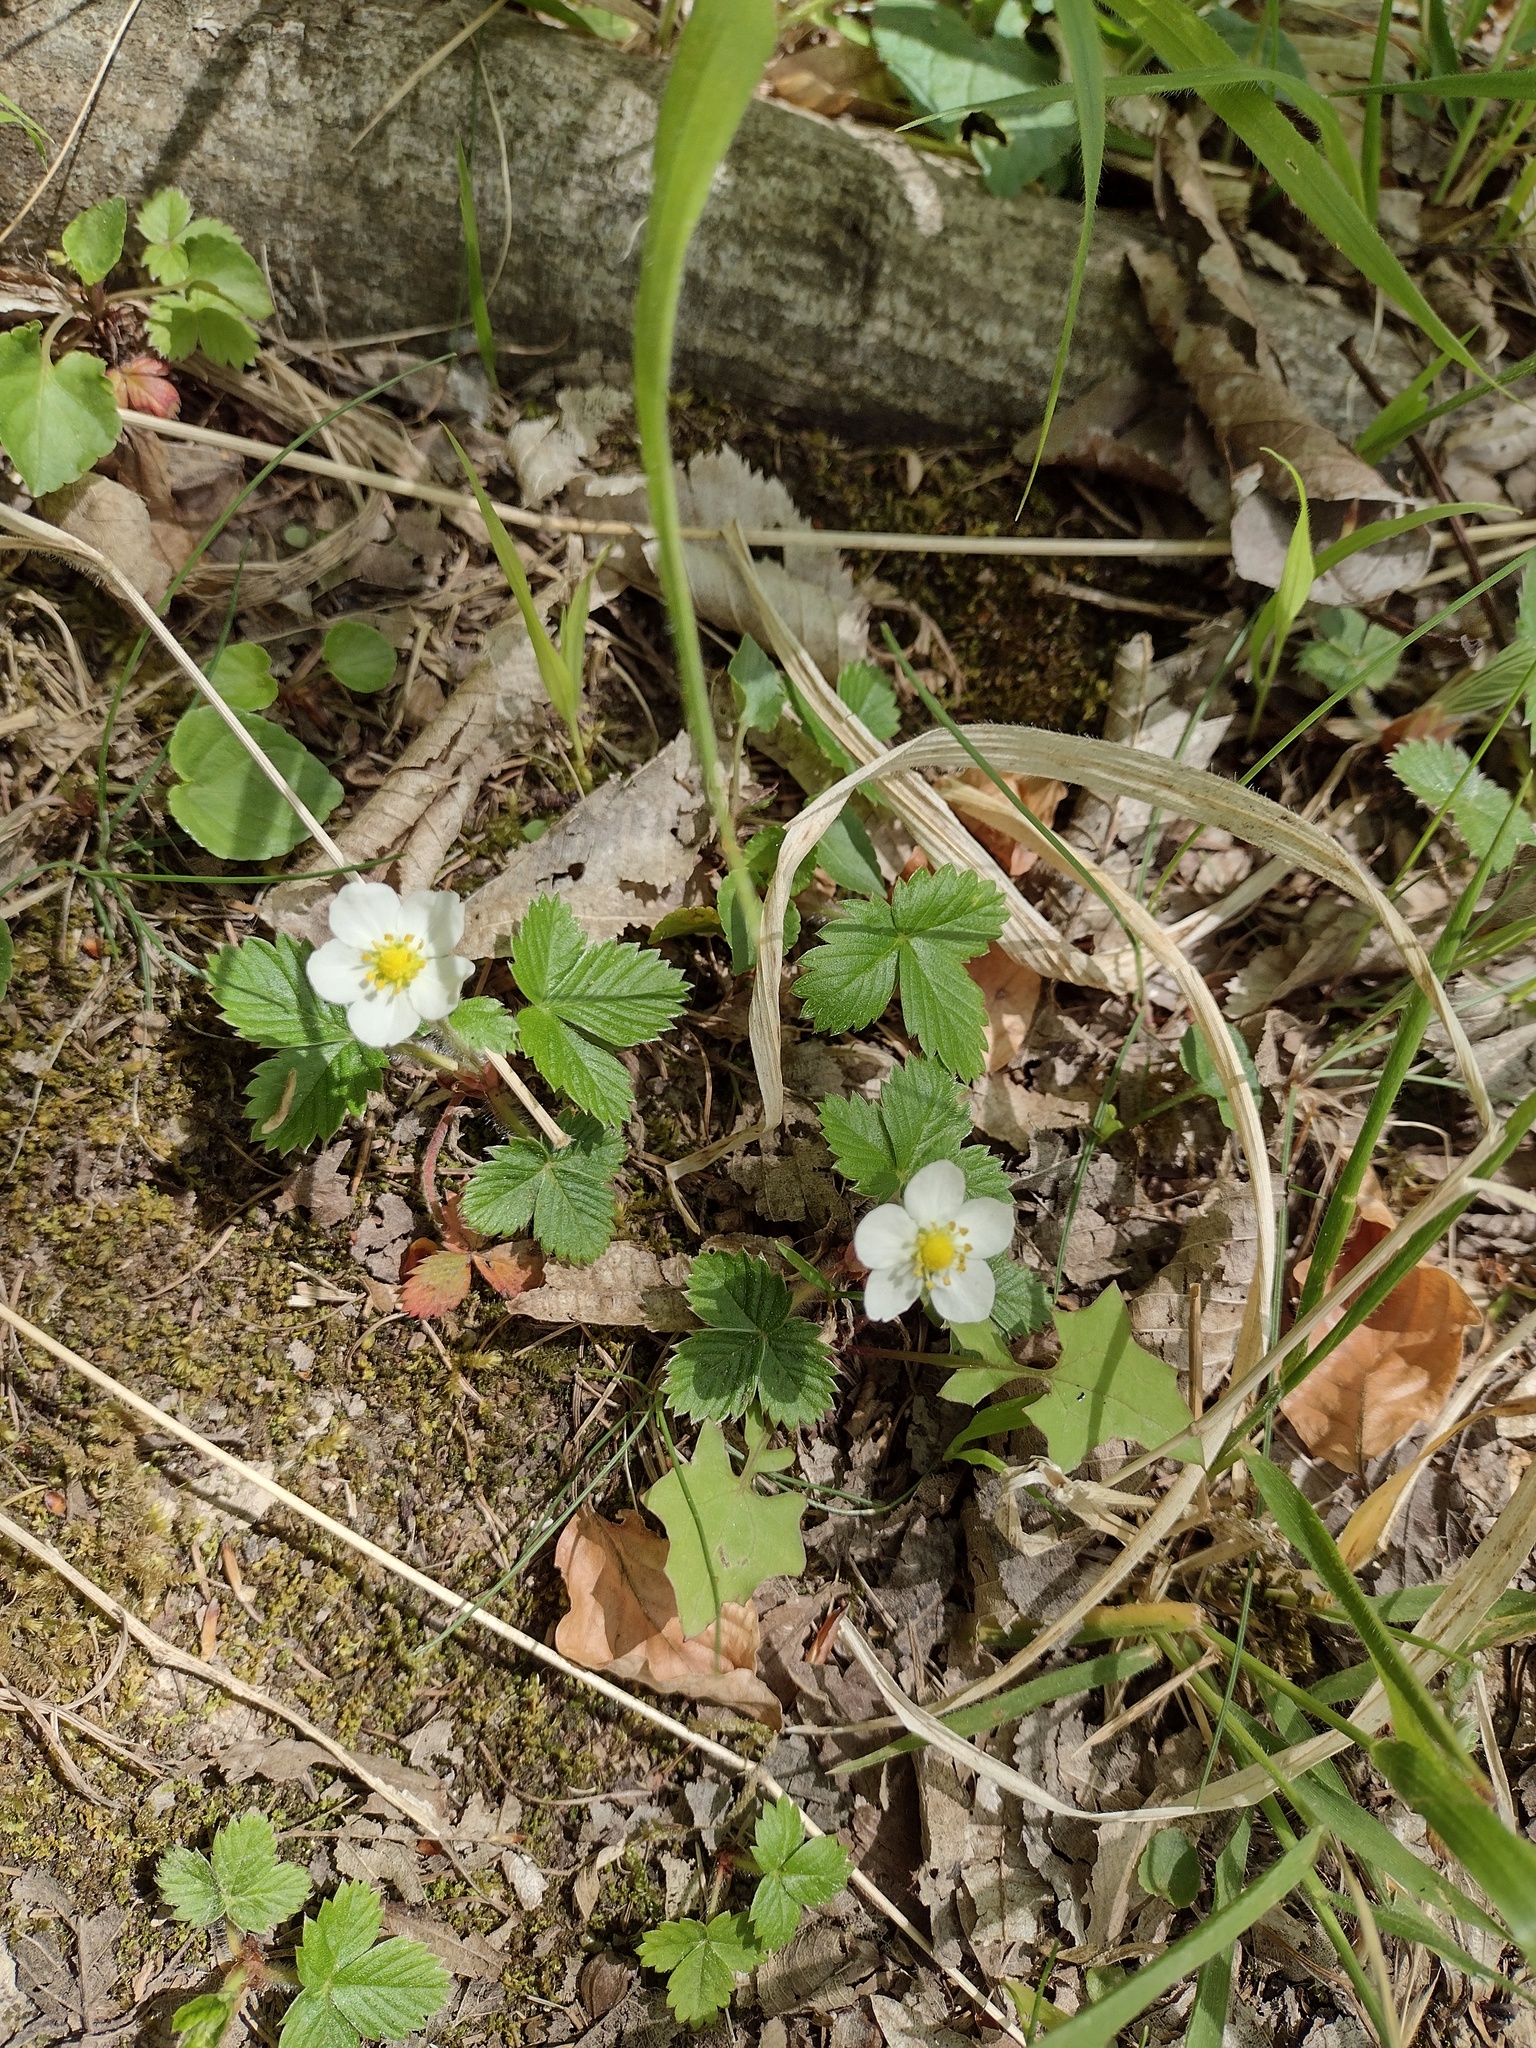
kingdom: Plantae
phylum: Tracheophyta
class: Magnoliopsida
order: Rosales
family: Rosaceae
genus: Fragaria
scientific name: Fragaria vesca
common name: Wild strawberry
